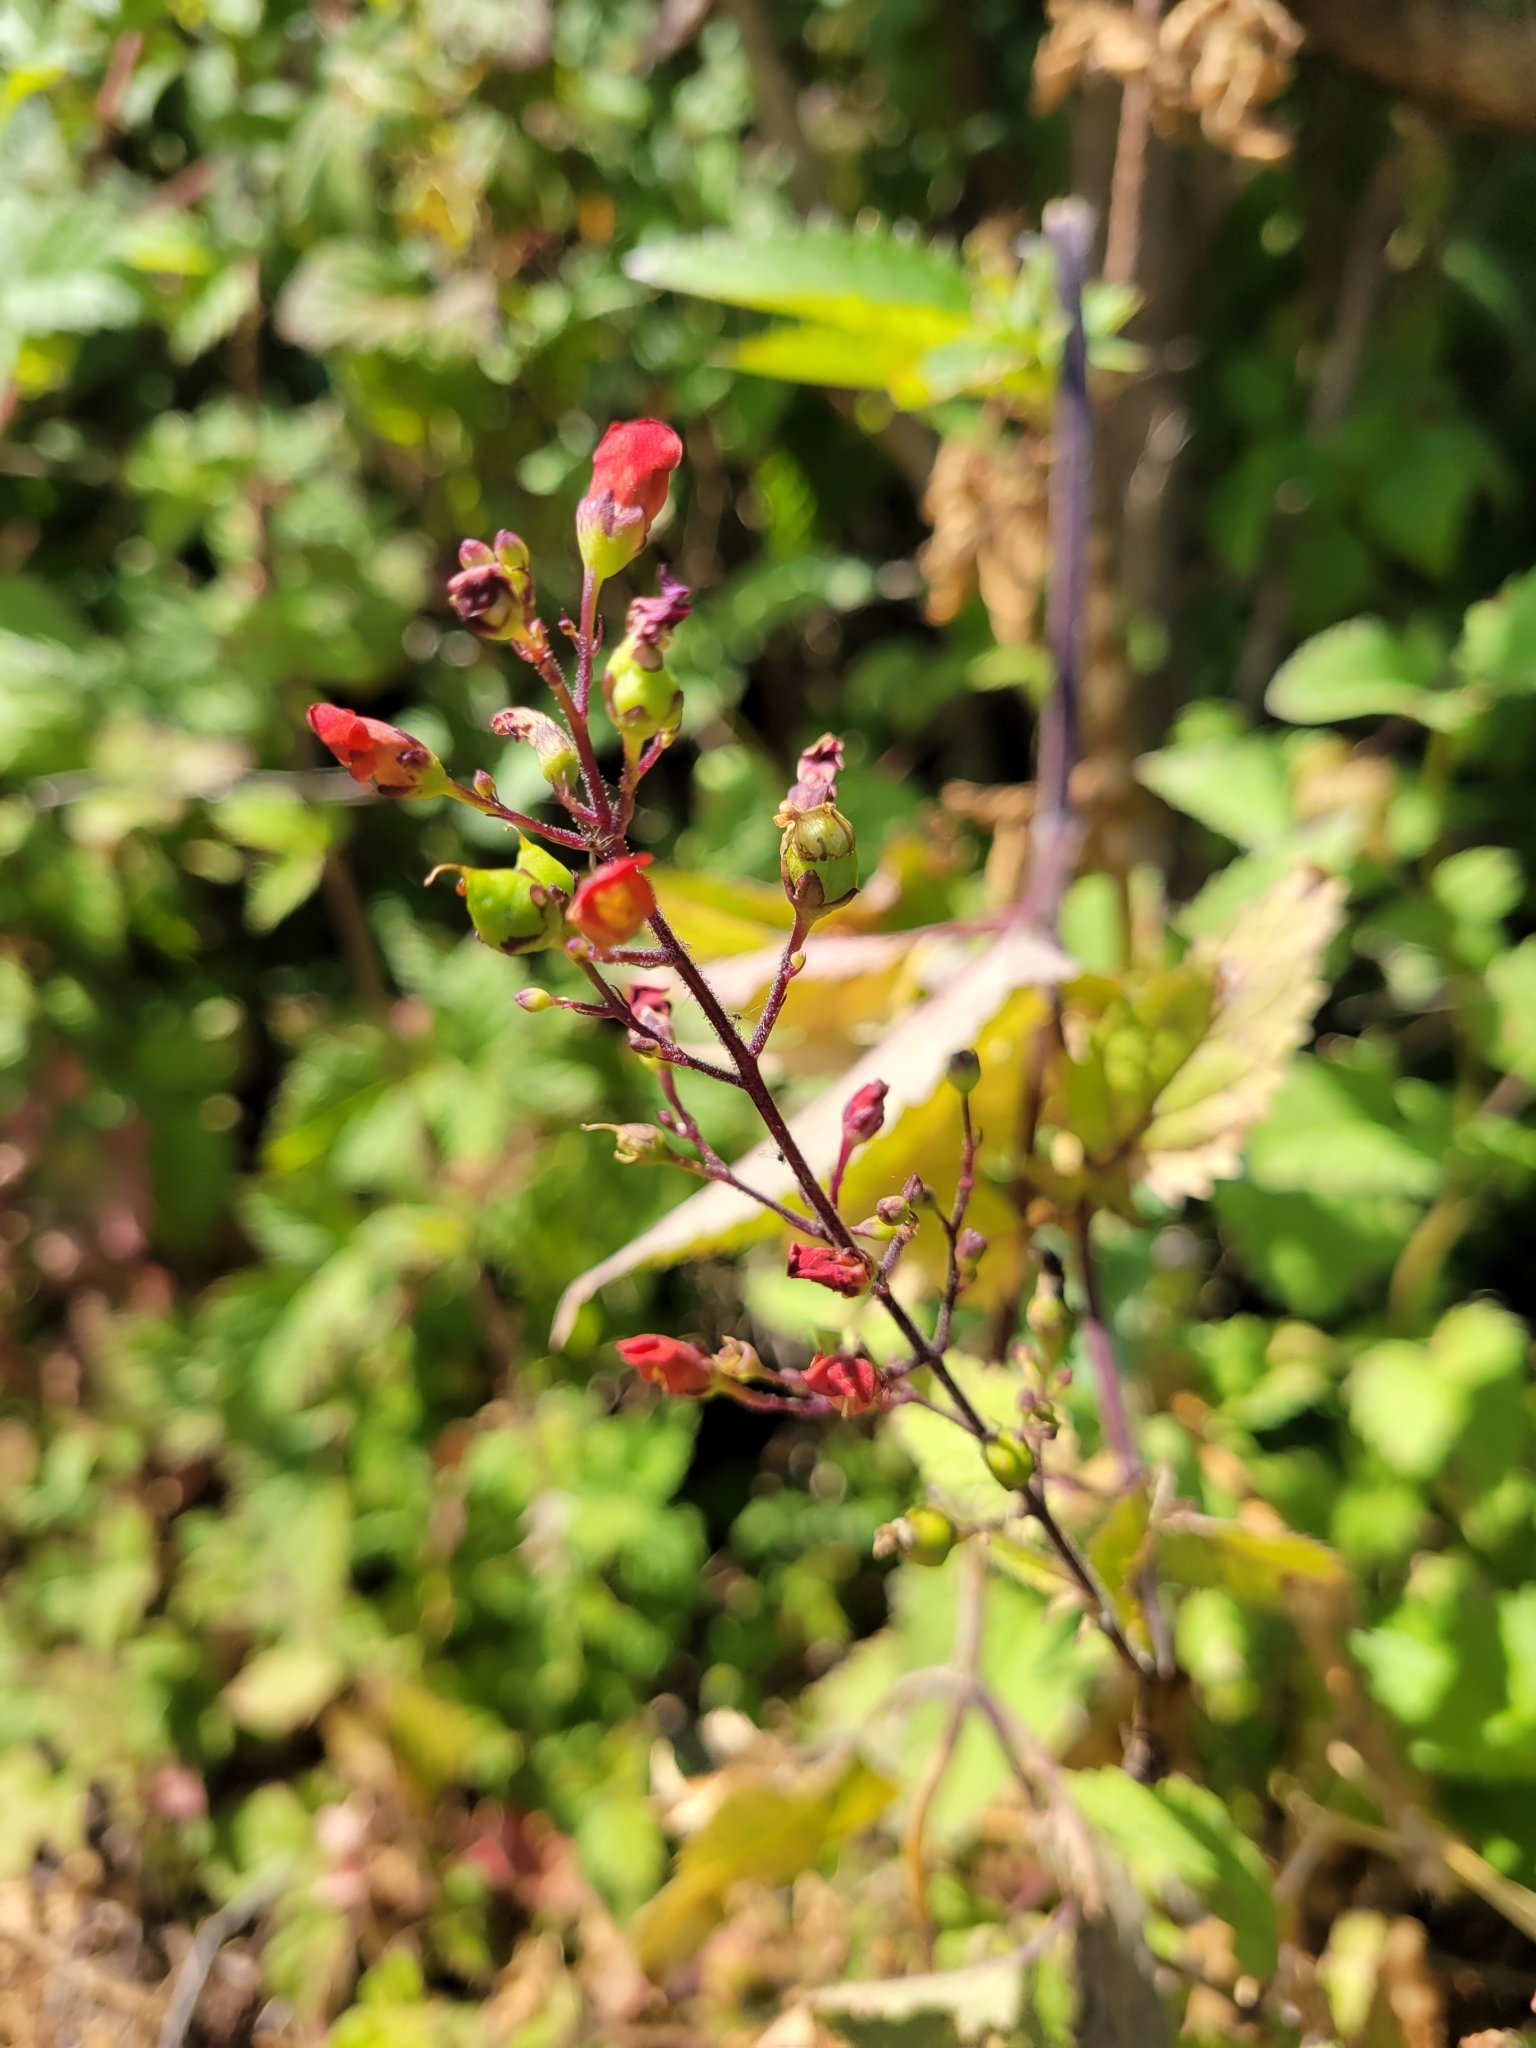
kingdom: Plantae
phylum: Tracheophyta
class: Magnoliopsida
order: Lamiales
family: Scrophulariaceae
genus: Scrophularia
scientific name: Scrophularia californica
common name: California figwort
